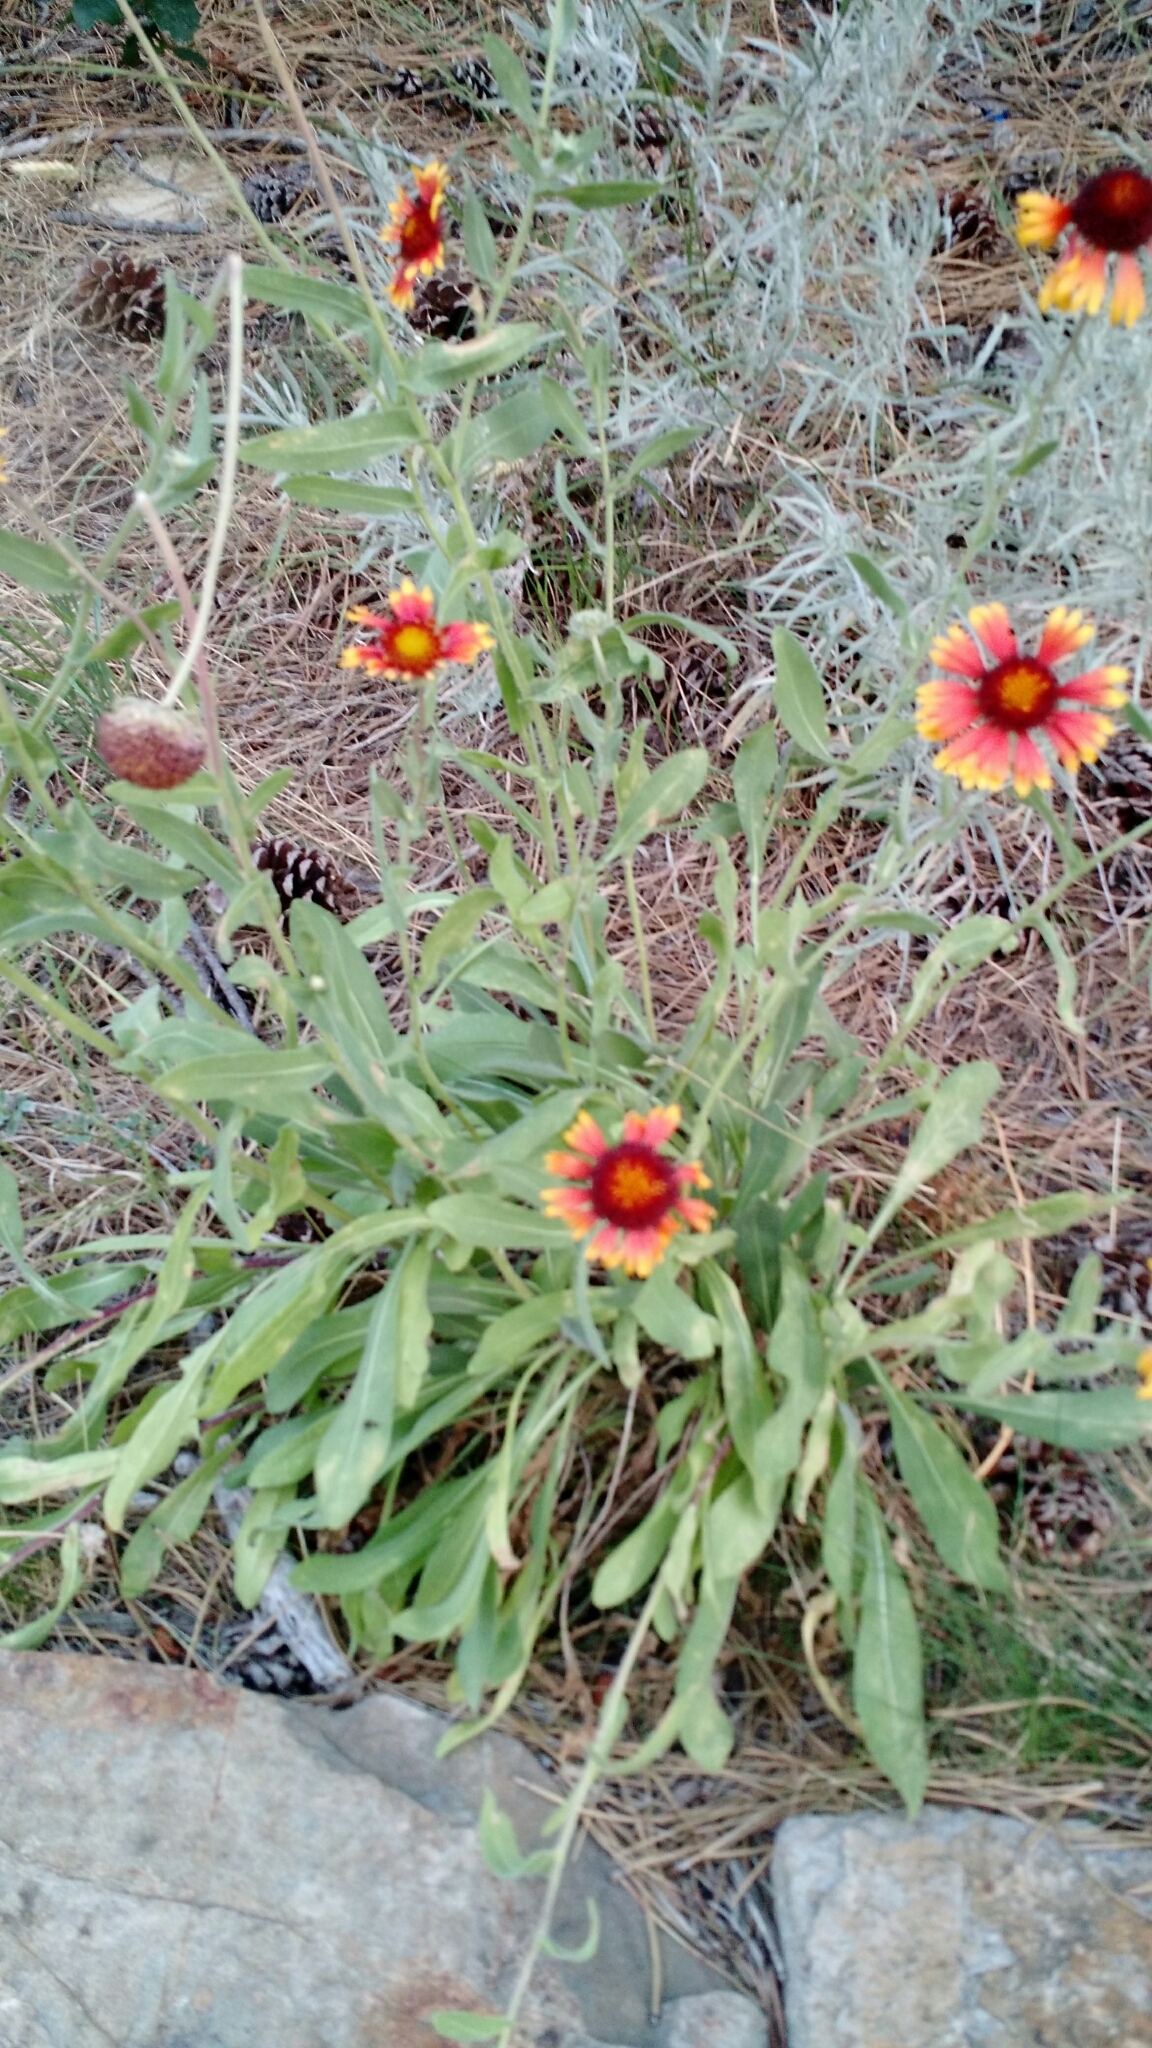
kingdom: Plantae
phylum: Tracheophyta
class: Magnoliopsida
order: Asterales
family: Asteraceae
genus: Gaillardia
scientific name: Gaillardia aristata
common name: Blanket-flower
